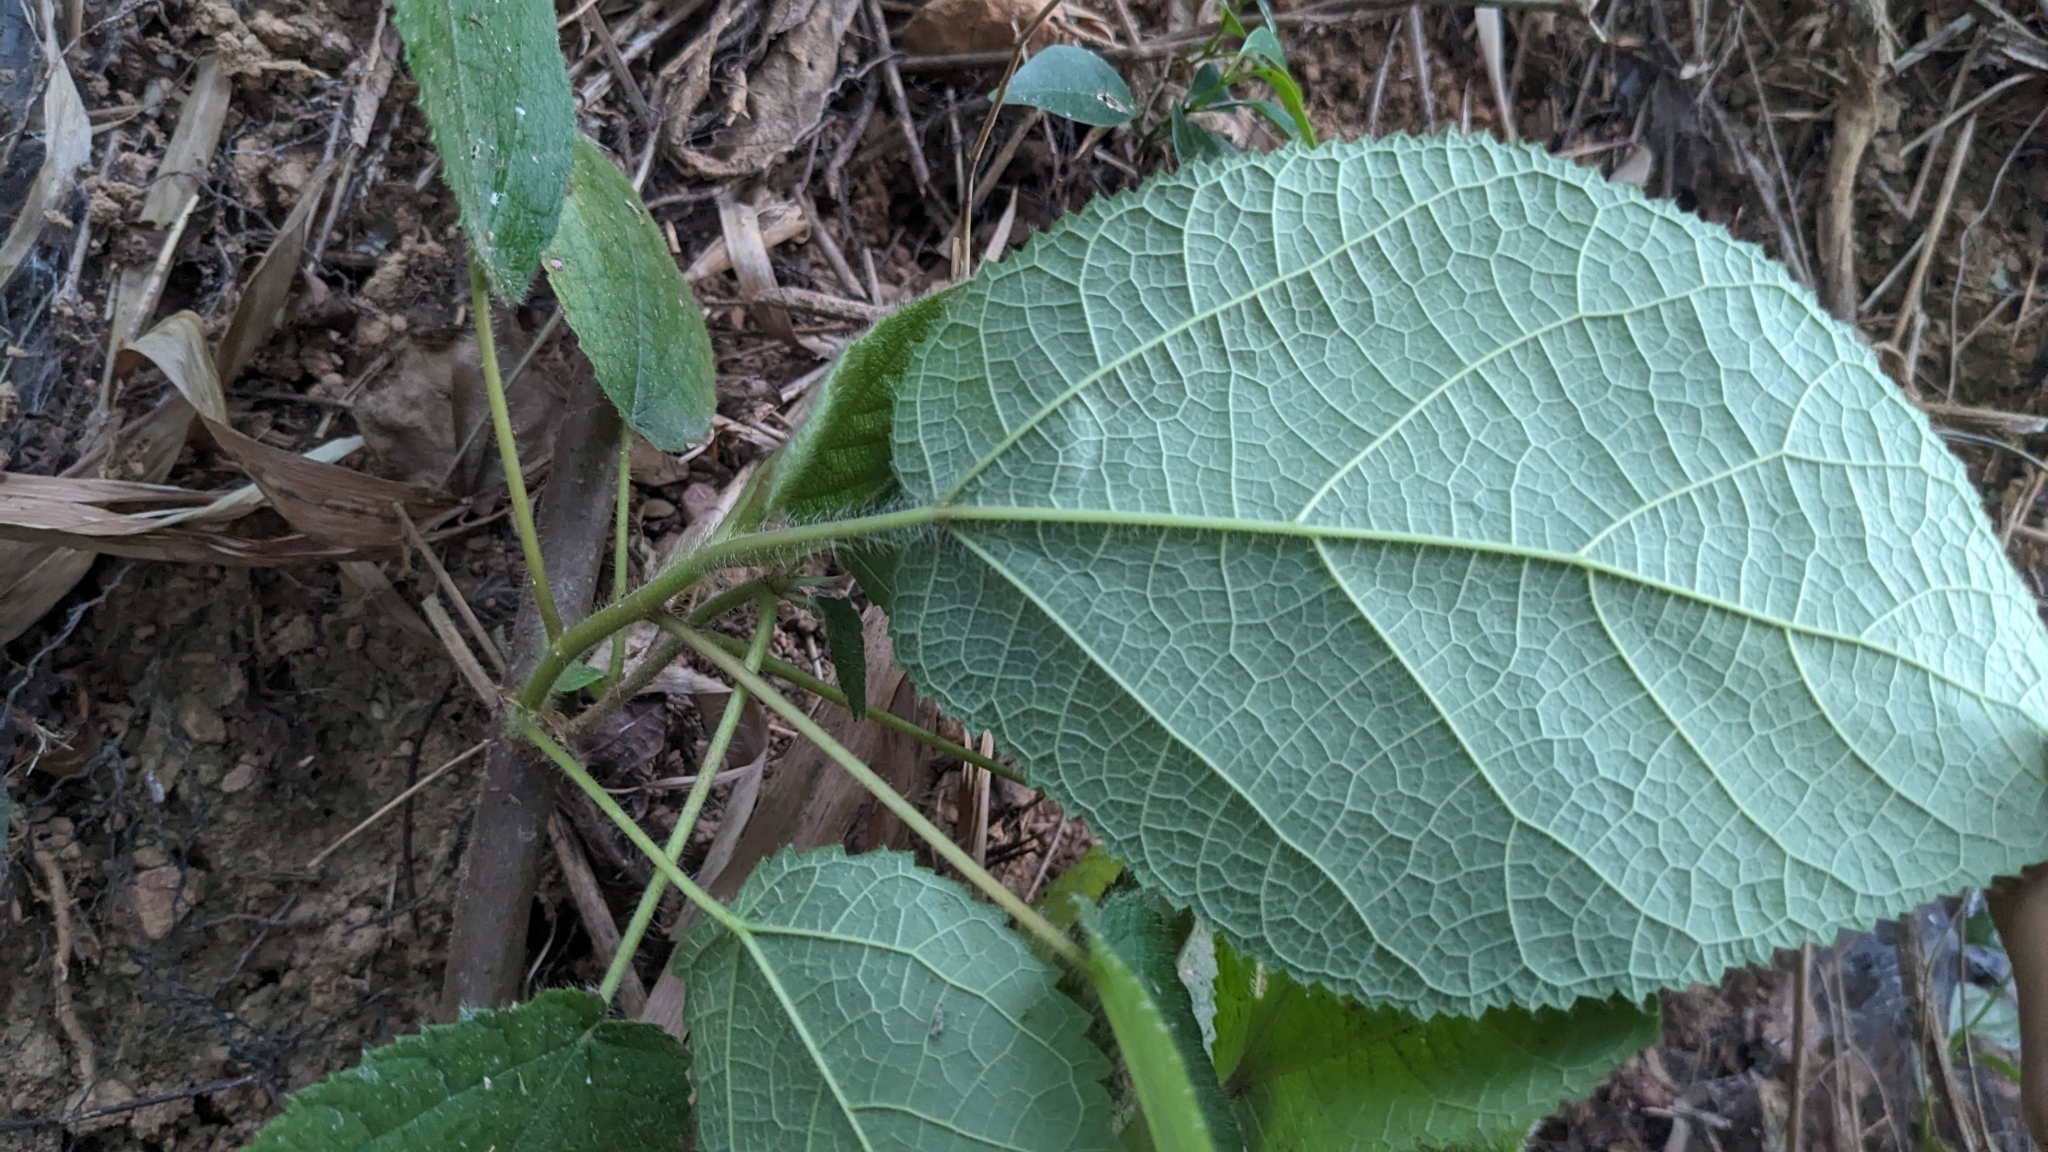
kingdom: Plantae
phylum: Tracheophyta
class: Magnoliopsida
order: Rosales
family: Moraceae
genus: Ficus
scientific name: Ficus triloba
